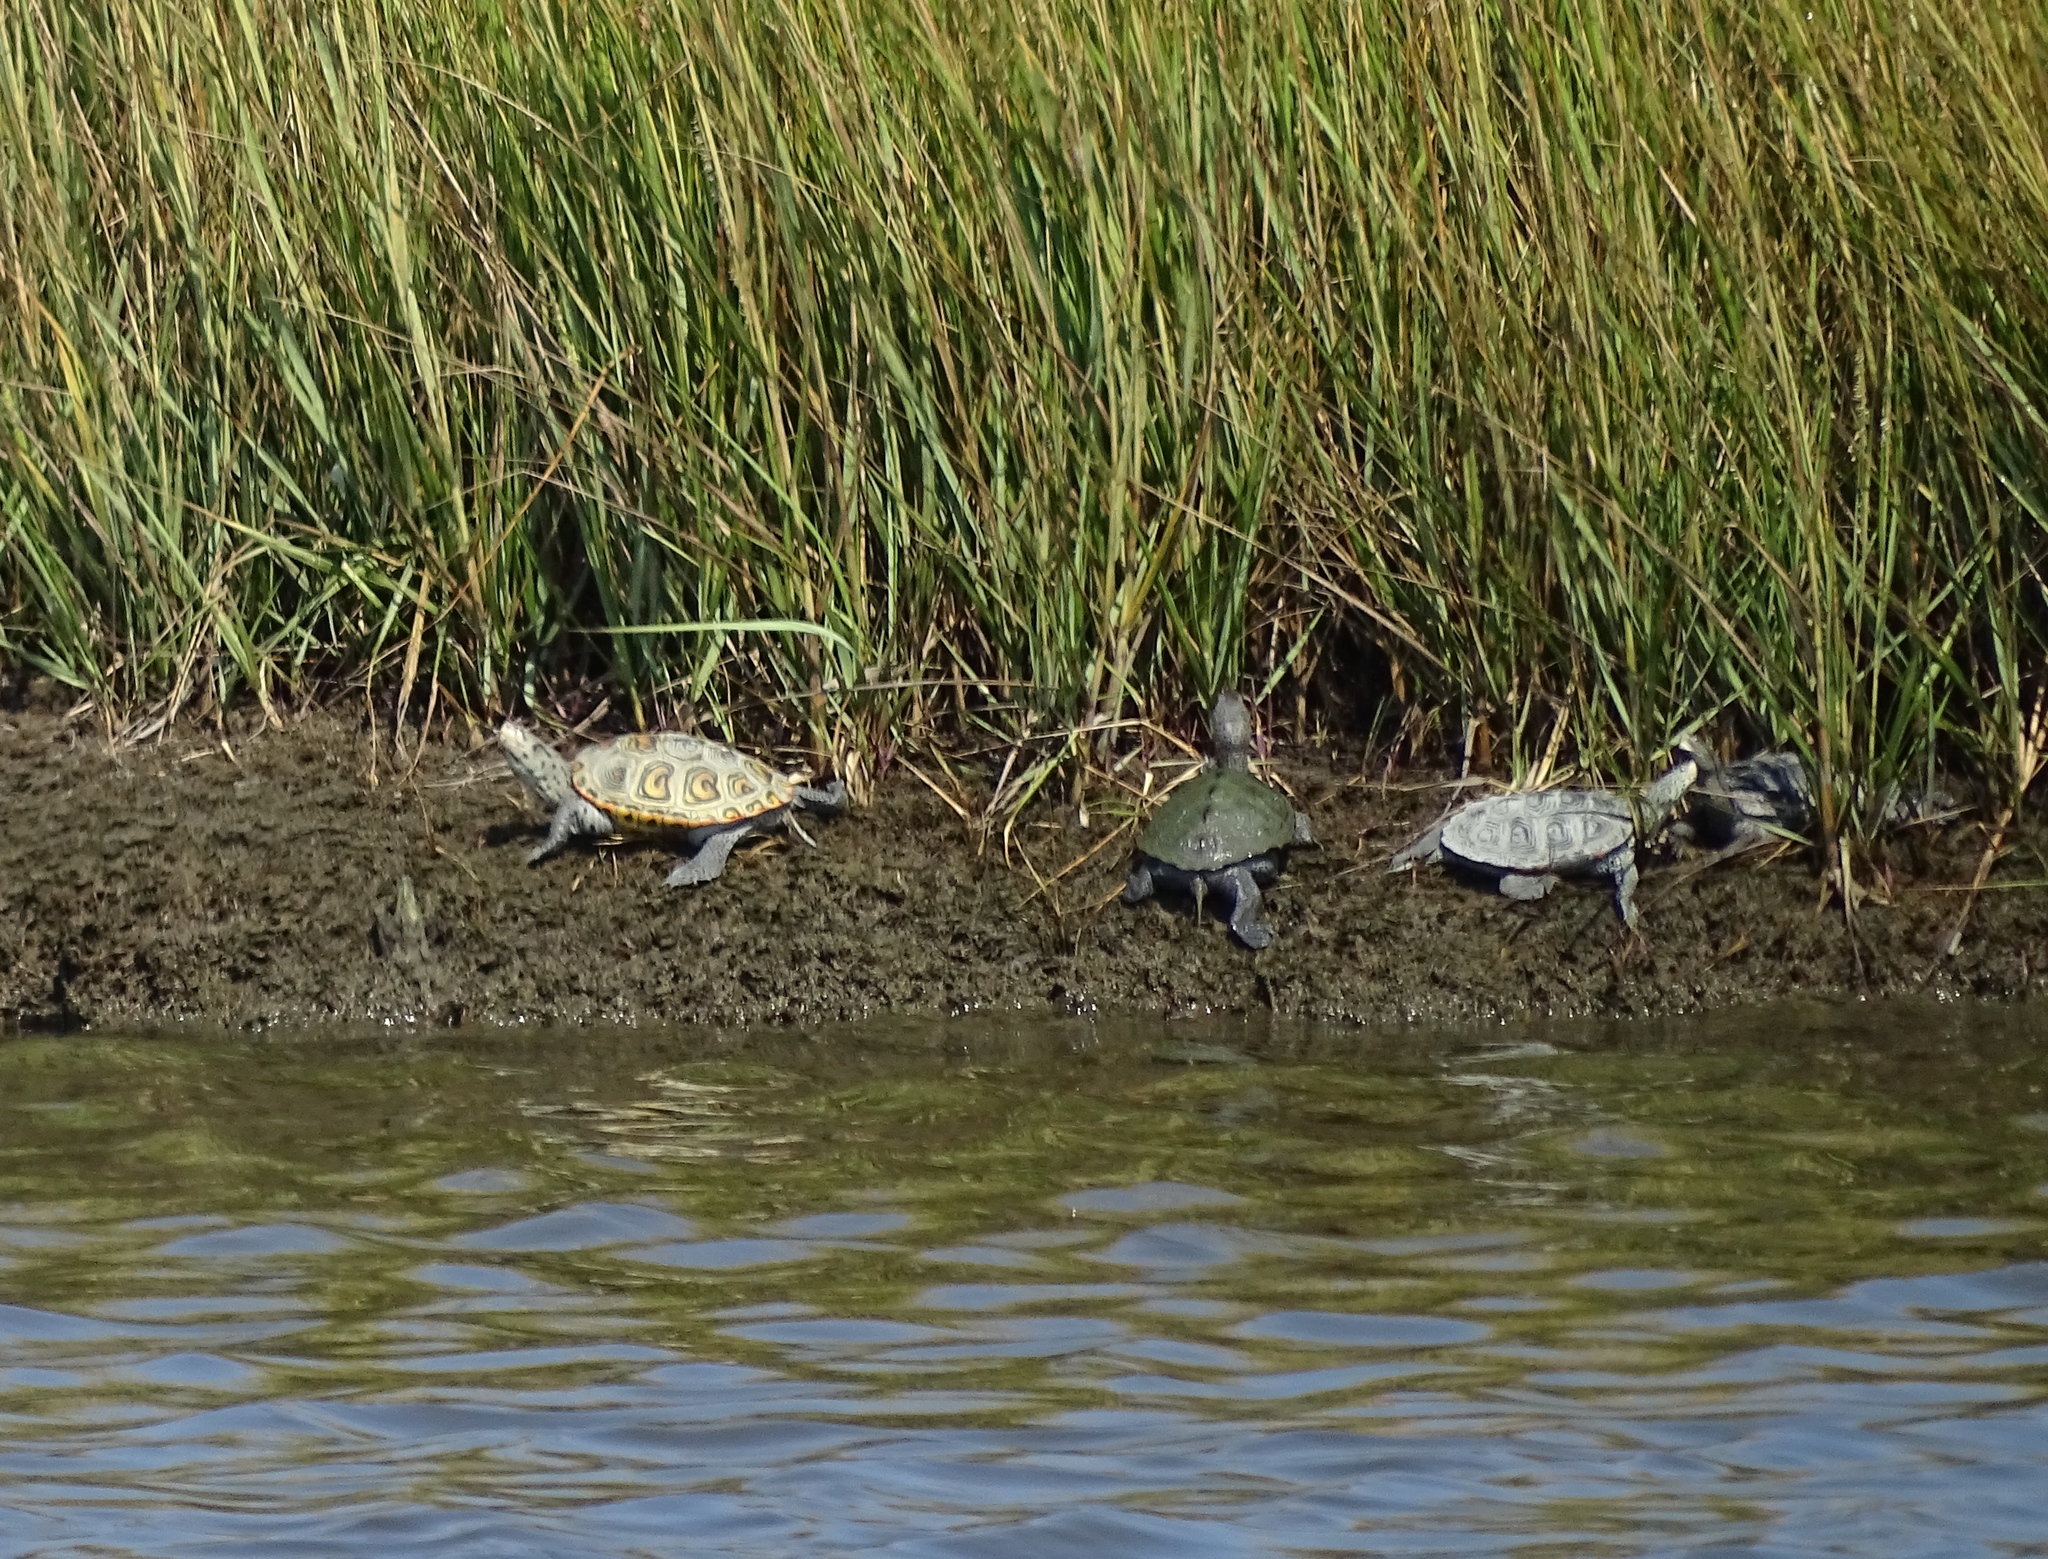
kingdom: Animalia
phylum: Chordata
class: Testudines
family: Emydidae
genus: Malaclemys
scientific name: Malaclemys terrapin
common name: Diamondback terrapin
